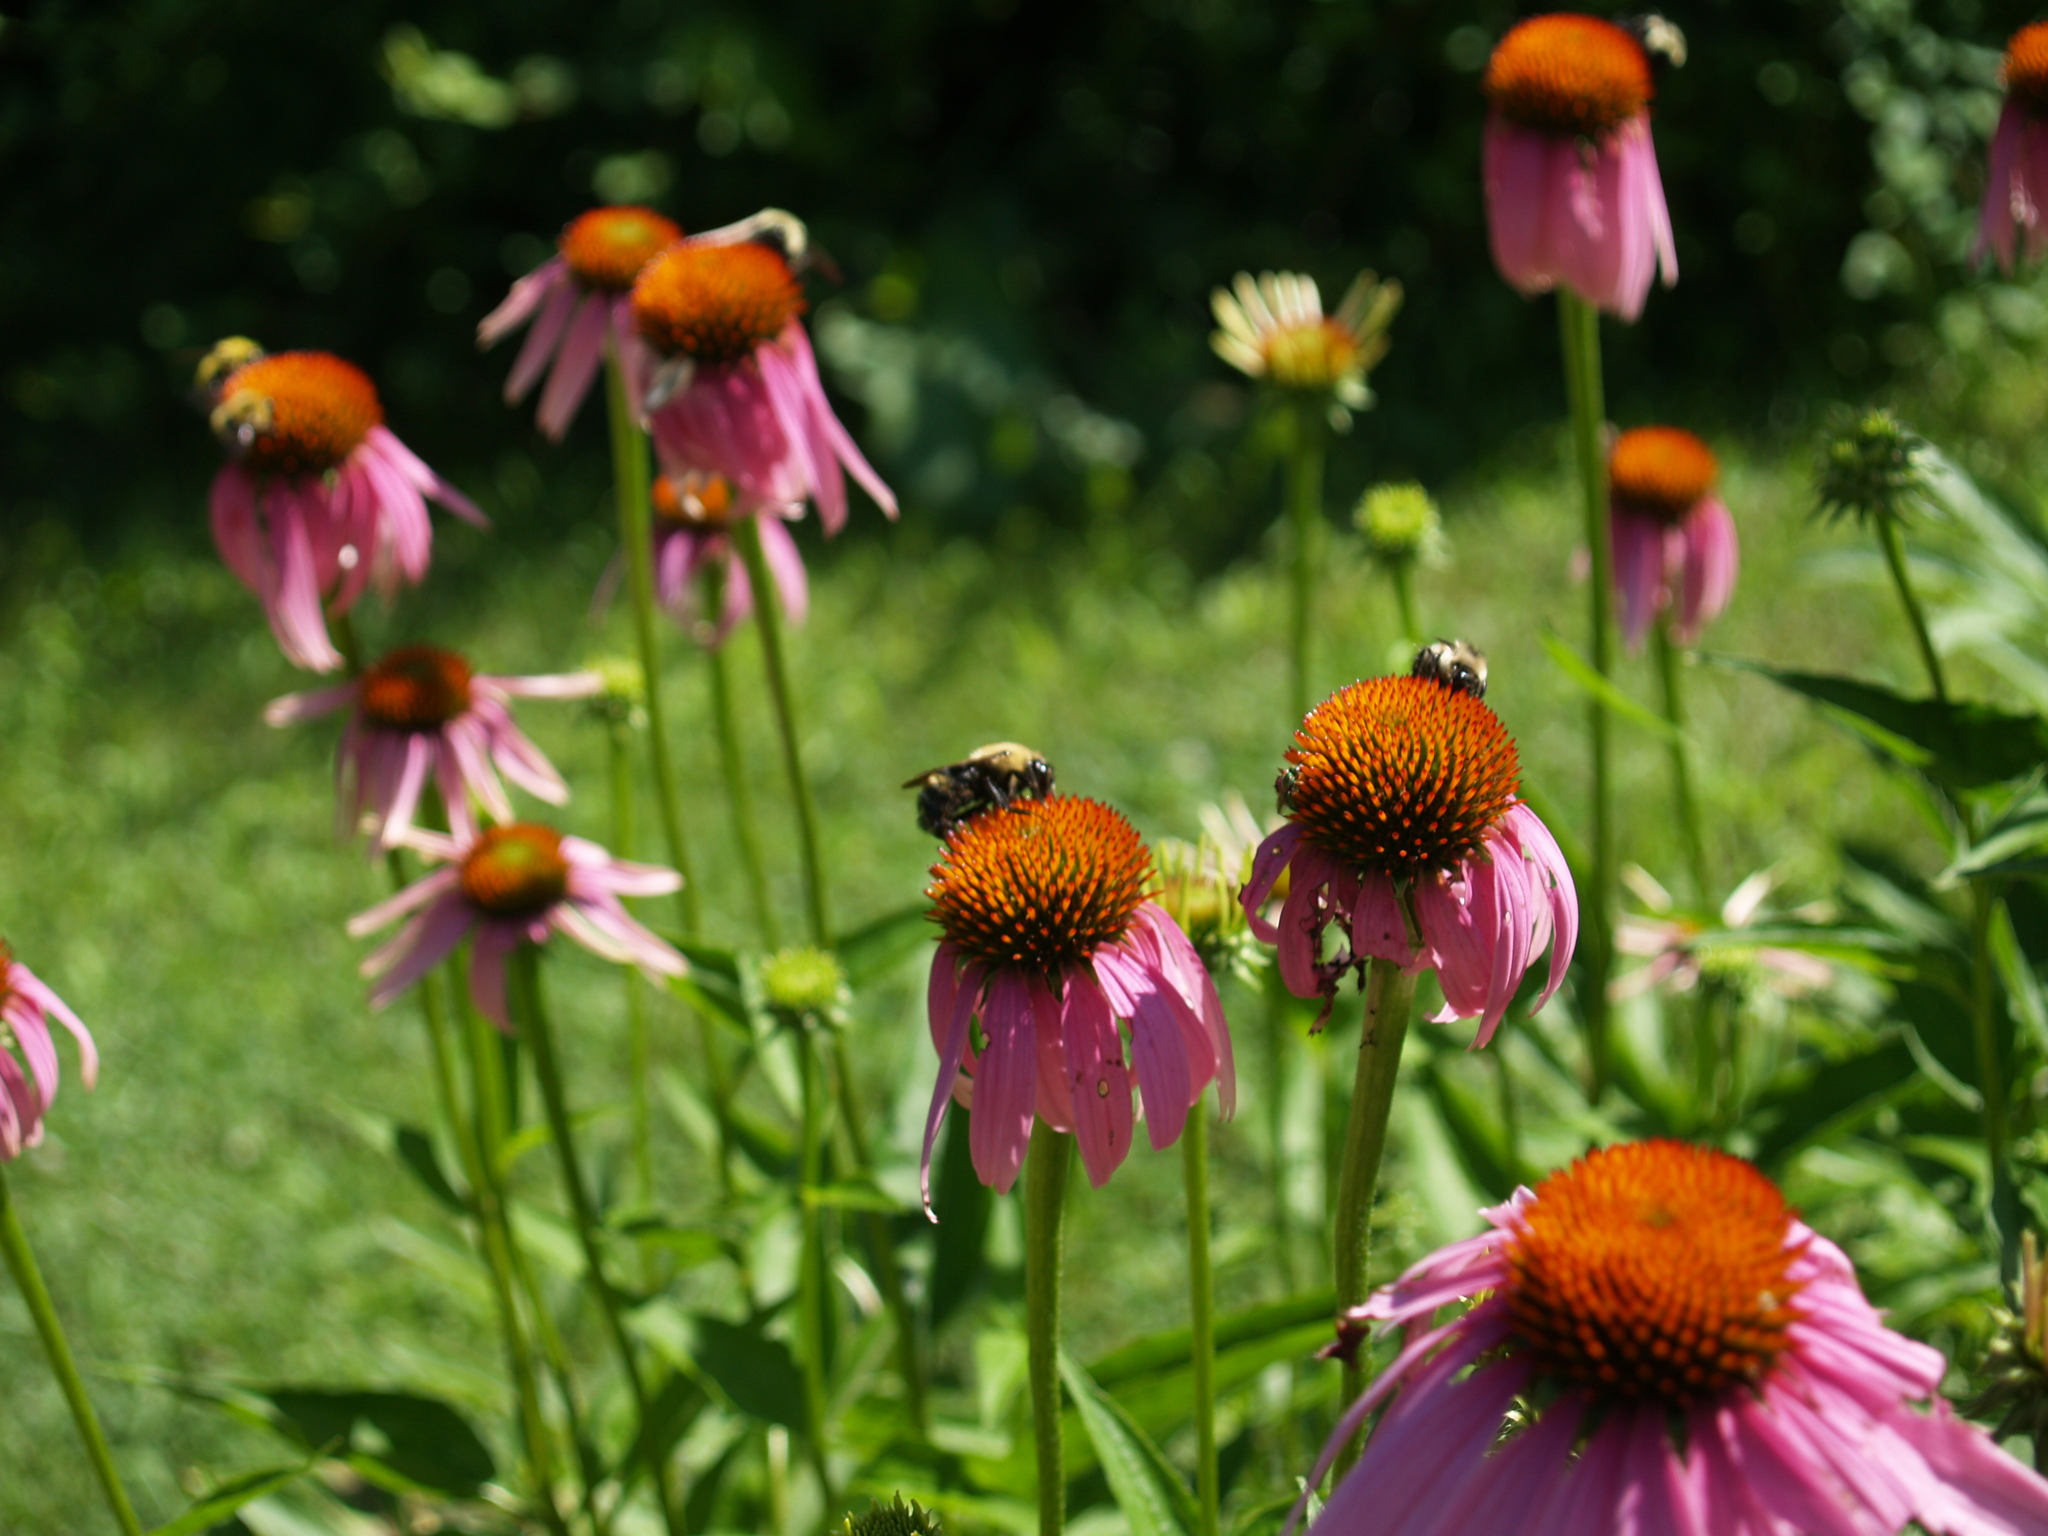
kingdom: Animalia
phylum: Arthropoda
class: Insecta
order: Hymenoptera
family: Apidae
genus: Bombus
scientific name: Bombus citrinus
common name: Lemon cuckoo bumble bee
